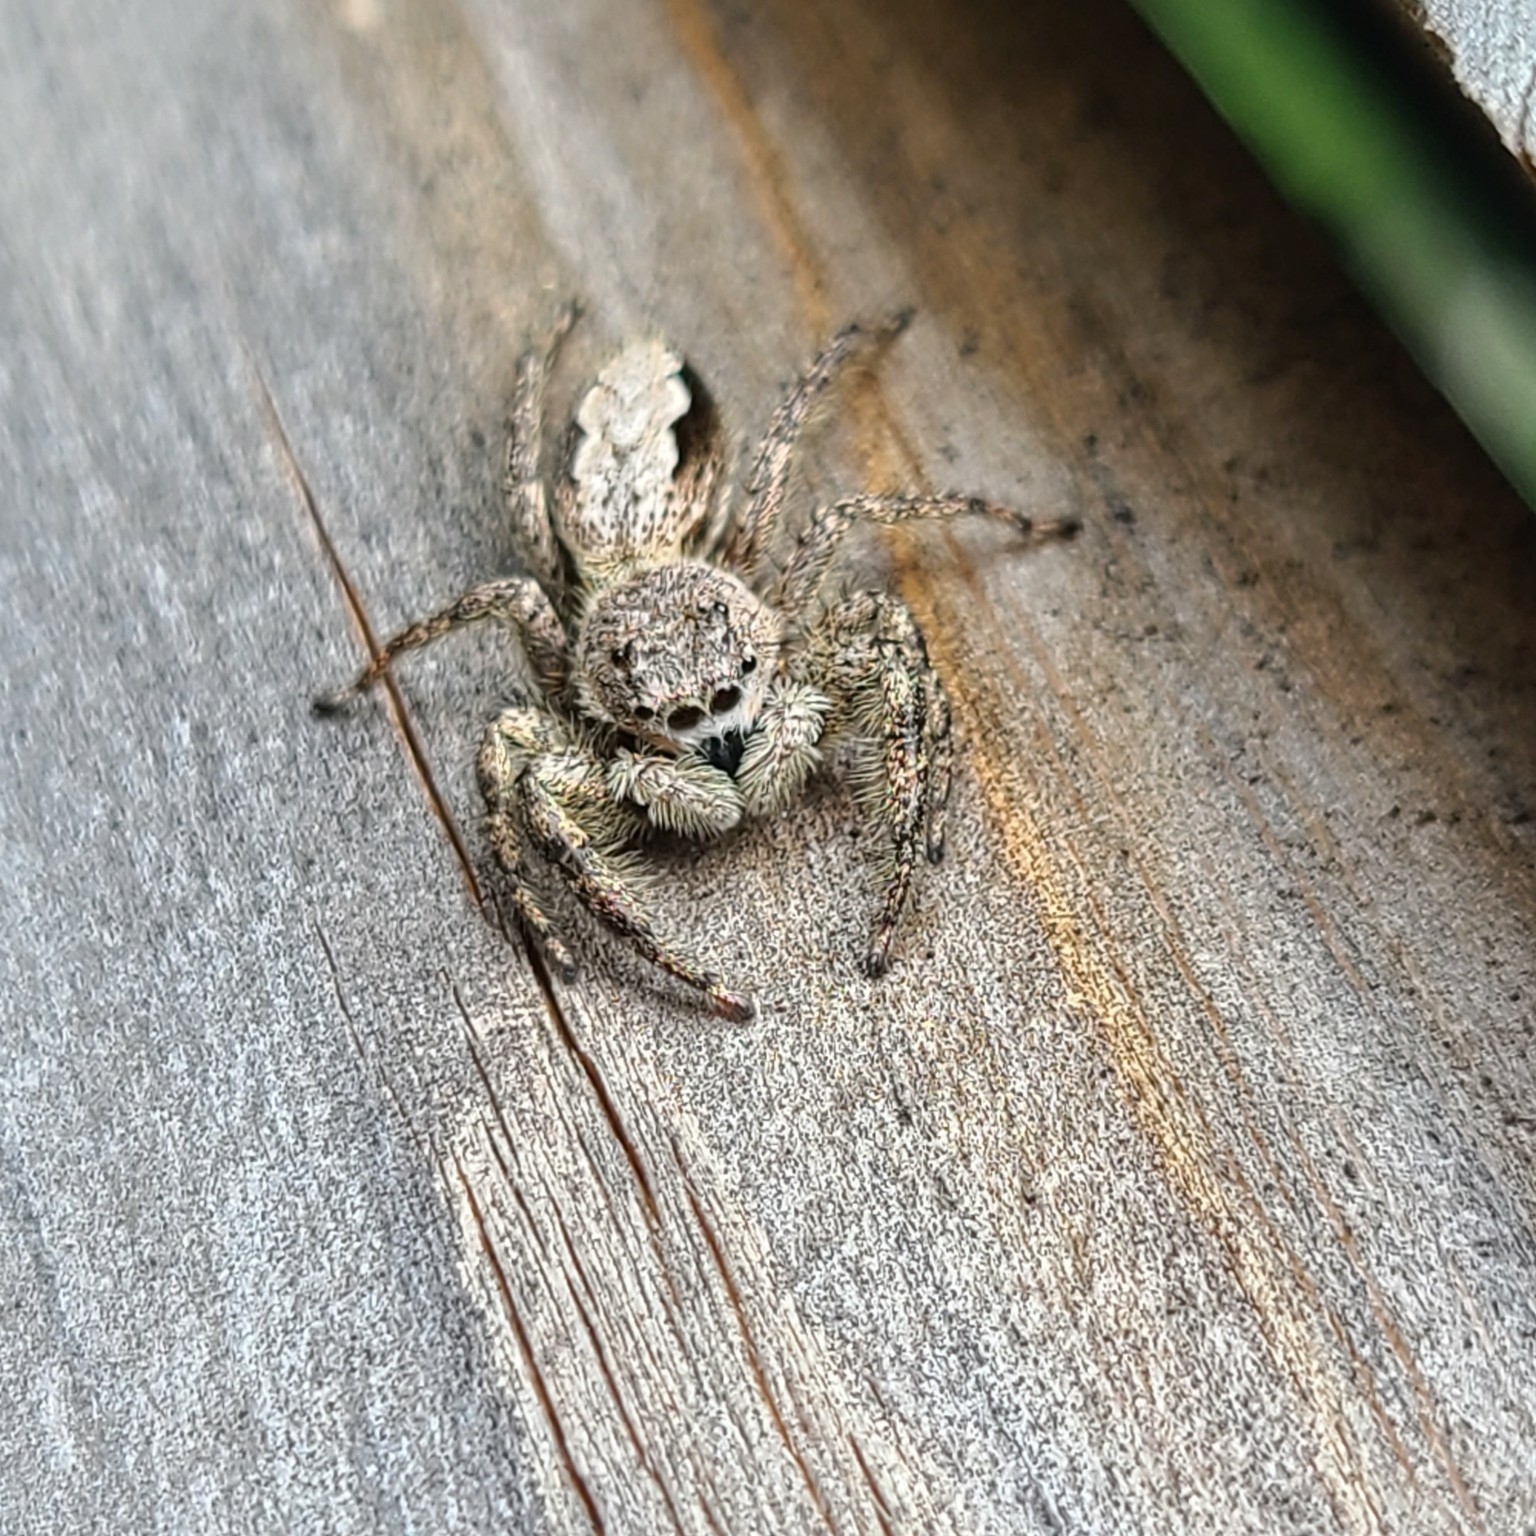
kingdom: Animalia
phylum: Arthropoda
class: Arachnida
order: Araneae
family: Salticidae
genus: Platycryptus
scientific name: Platycryptus undatus
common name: Tan jumping spider
